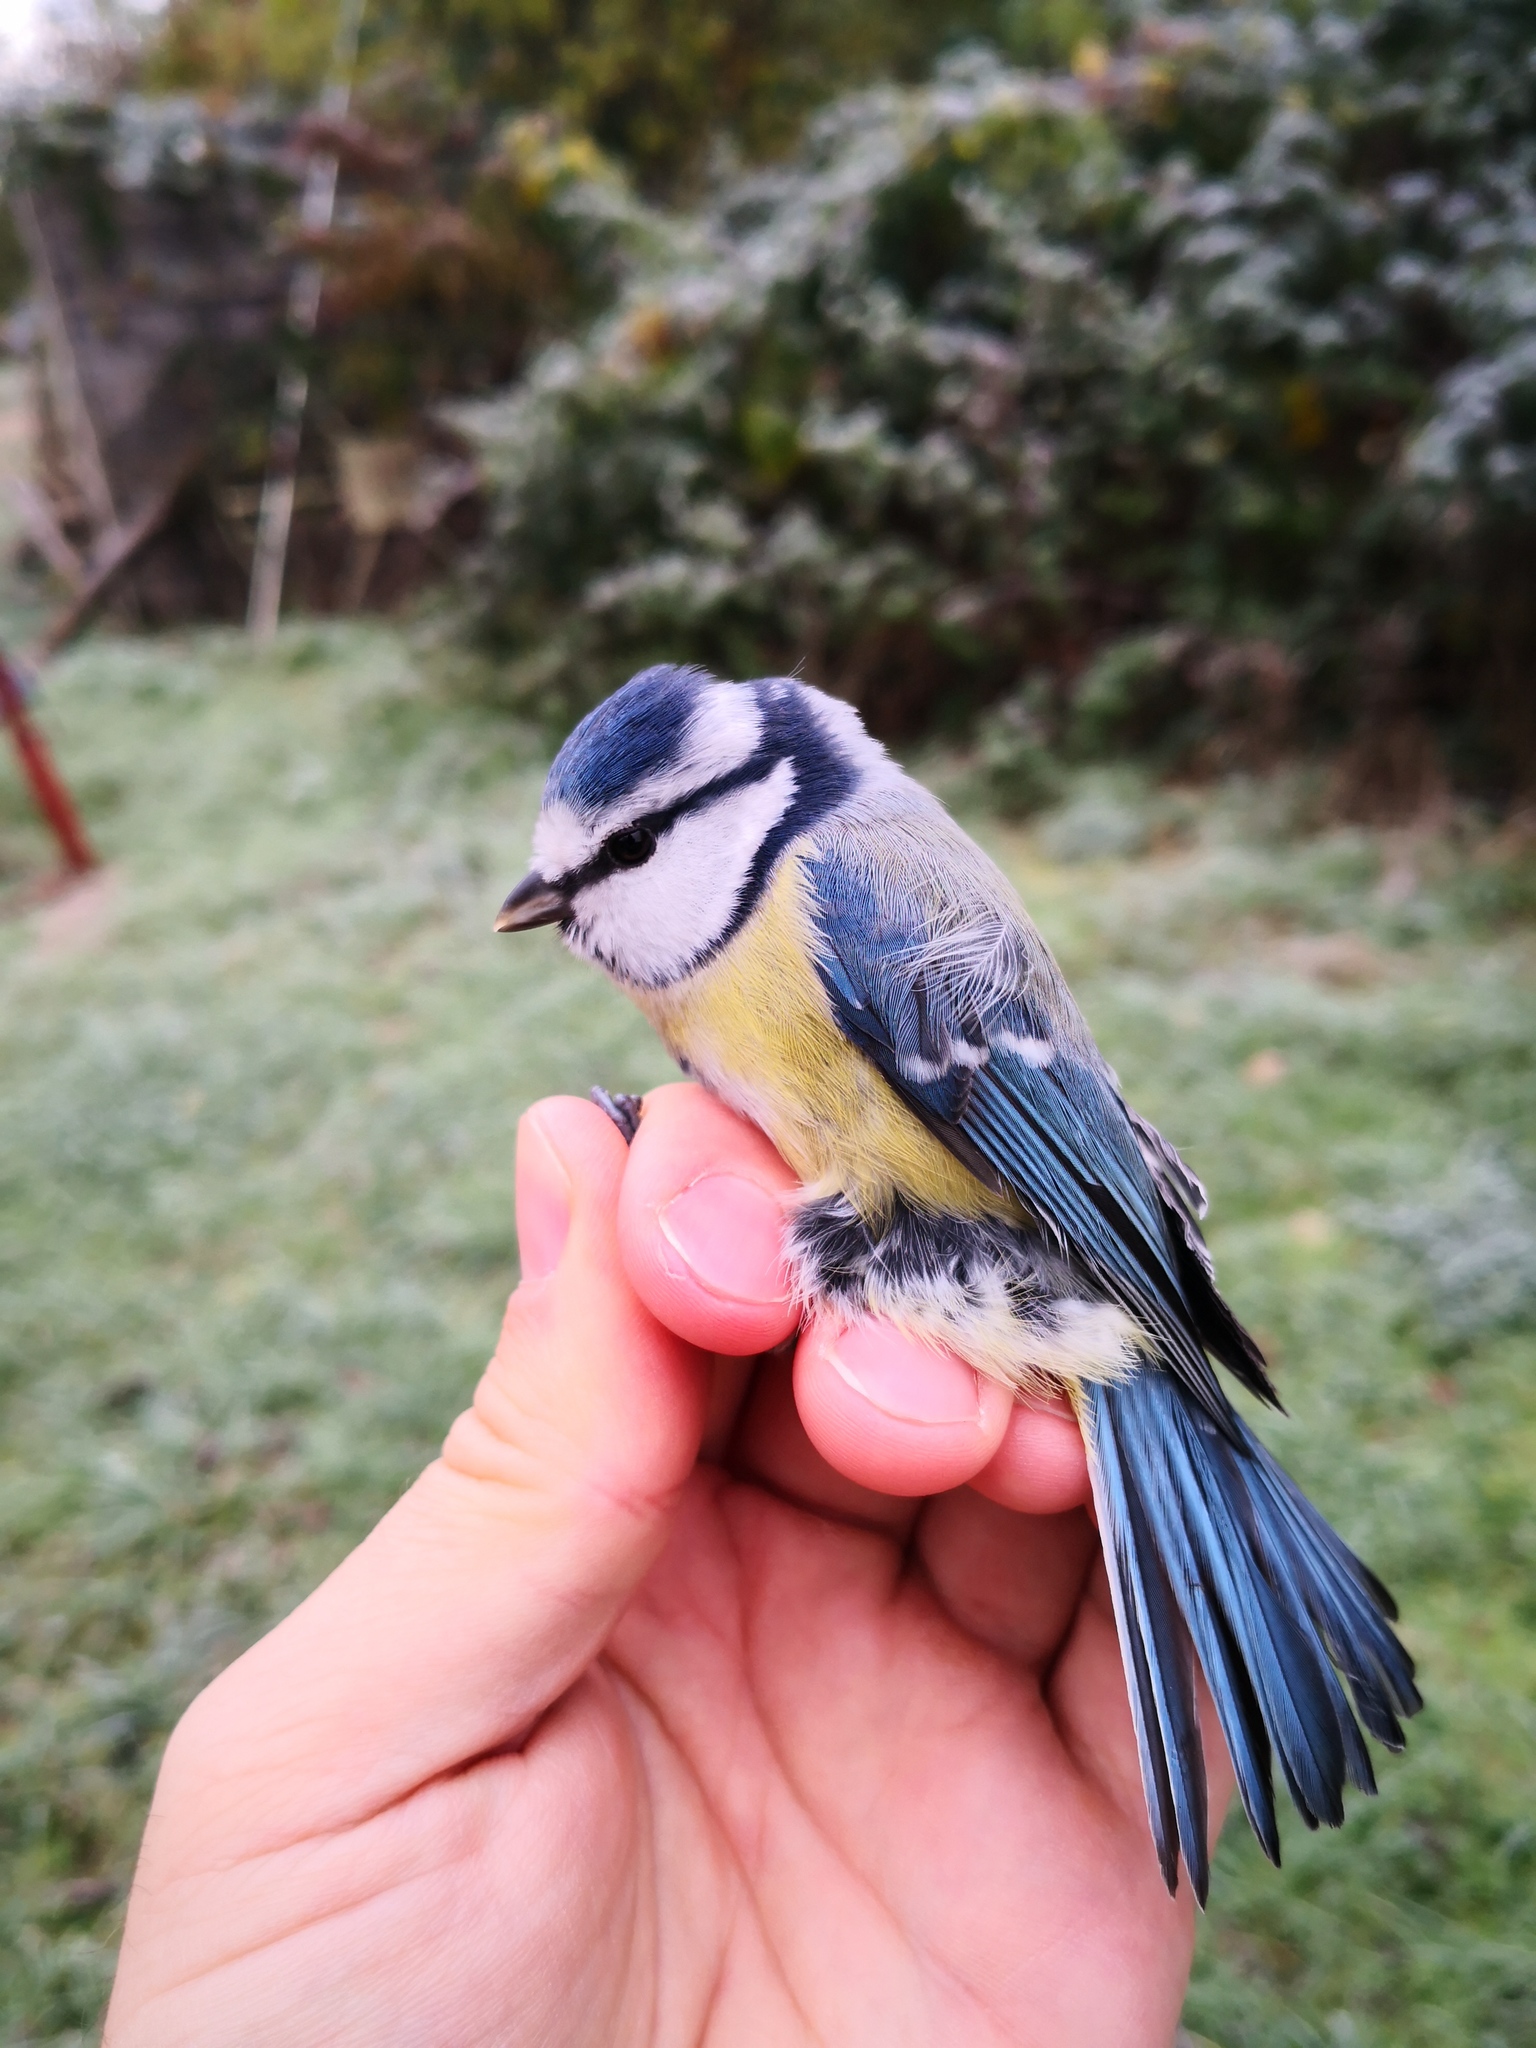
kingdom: Animalia
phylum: Chordata
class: Aves
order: Passeriformes
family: Paridae
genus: Cyanistes
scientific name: Cyanistes caeruleus
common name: Eurasian blue tit
